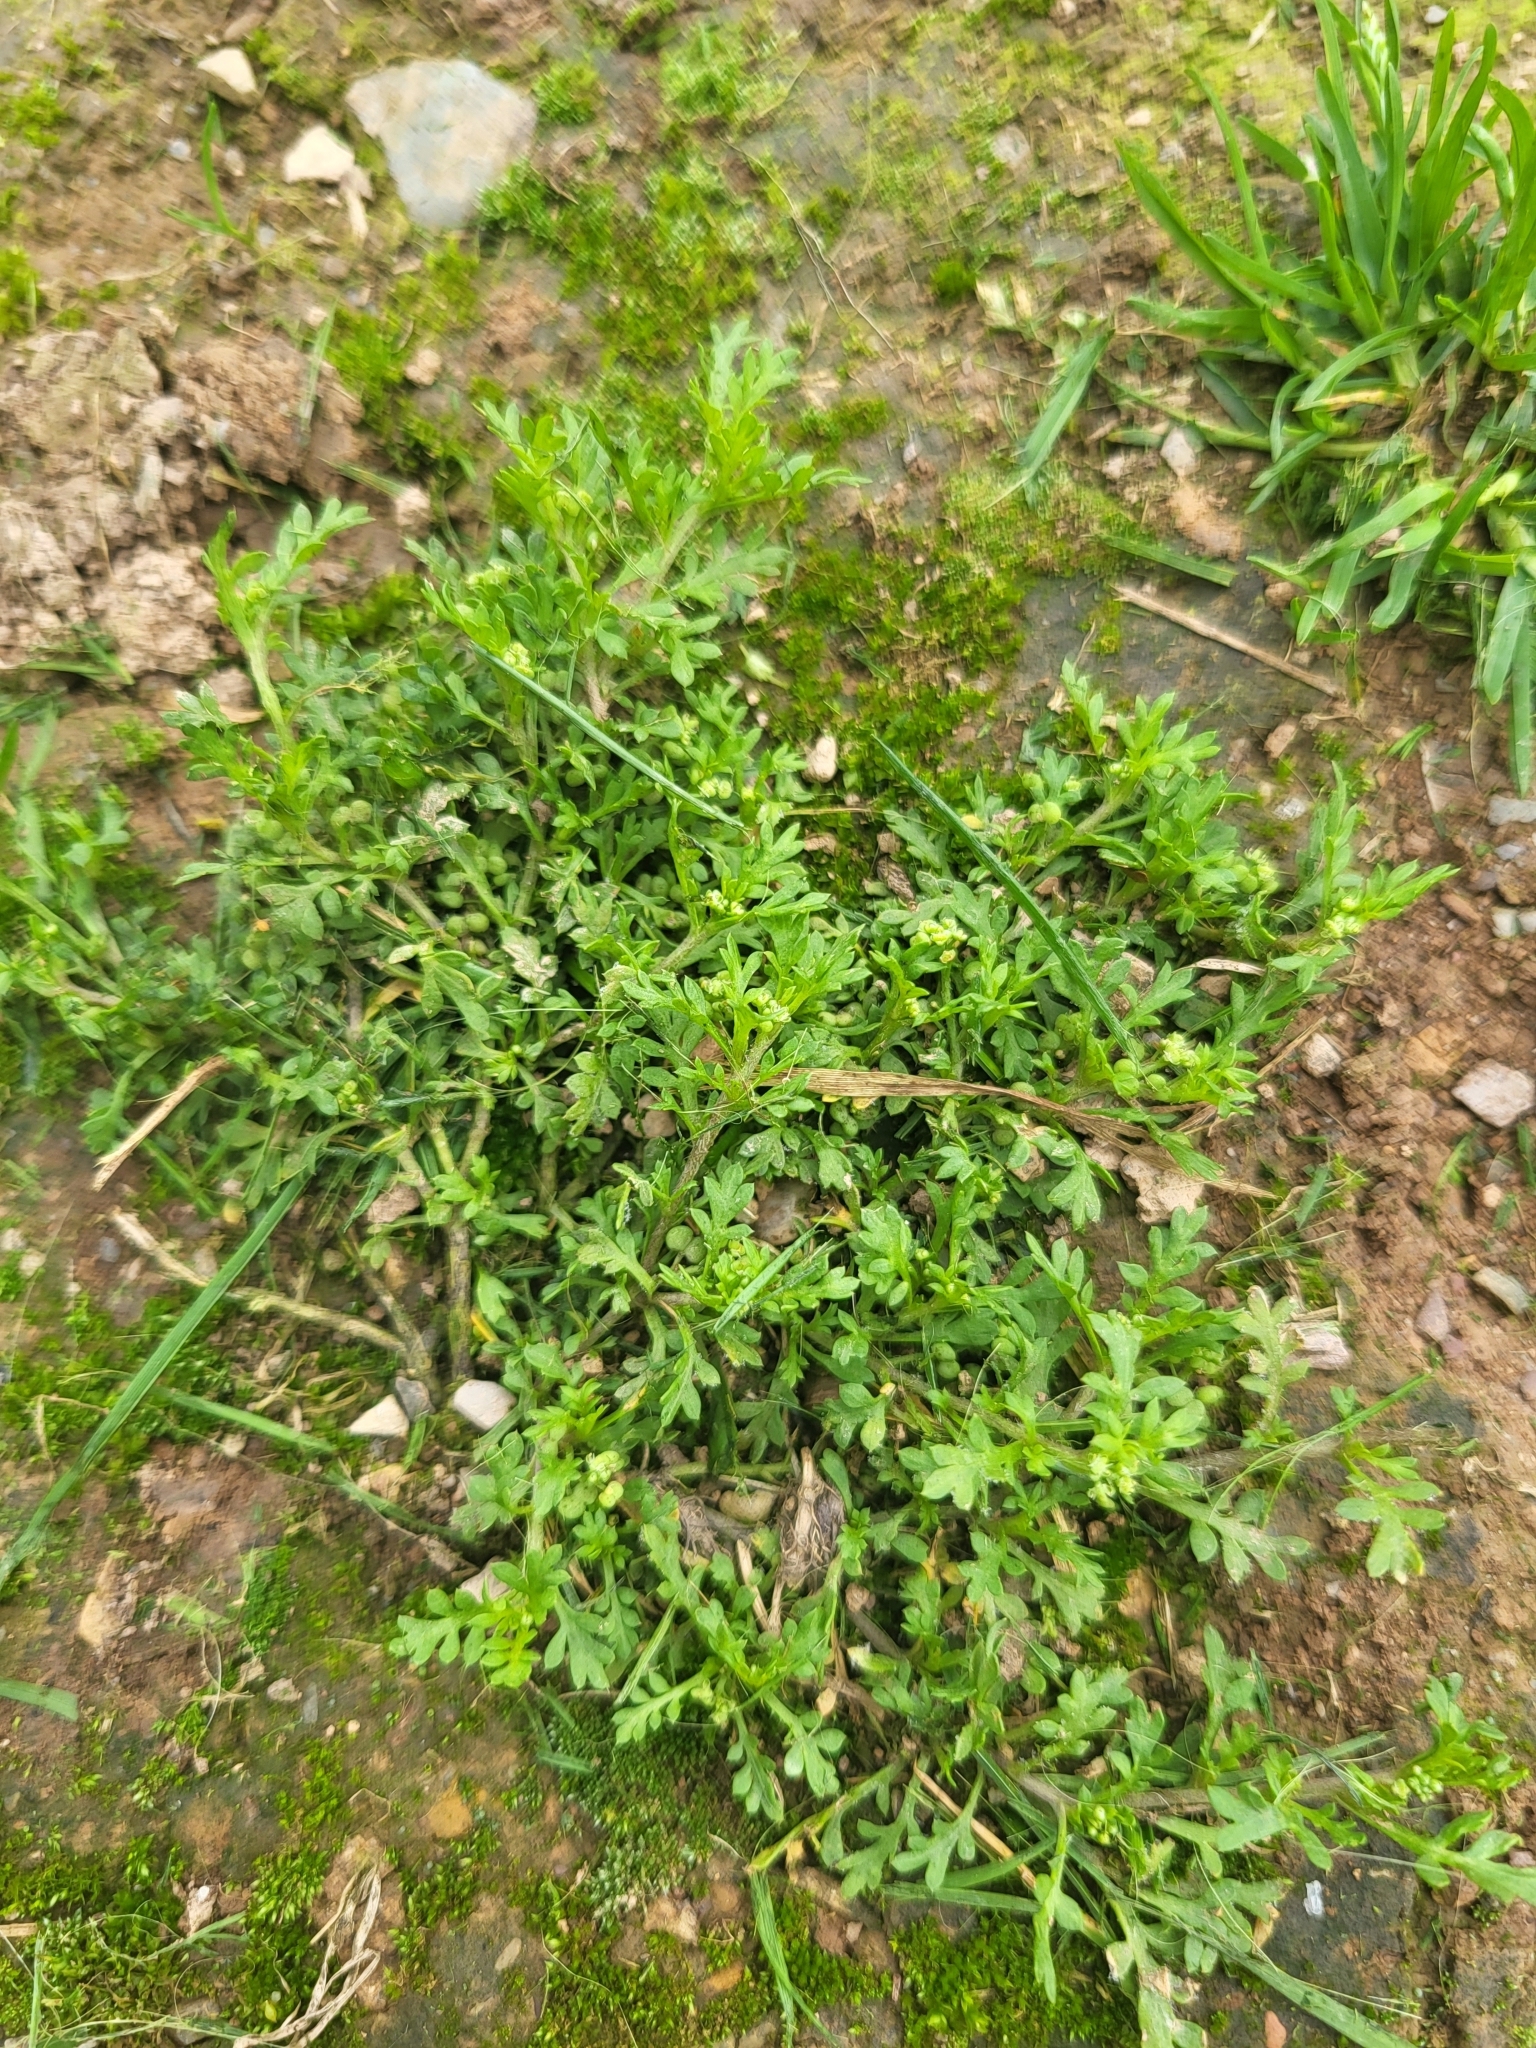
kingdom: Plantae
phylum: Tracheophyta
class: Magnoliopsida
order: Brassicales
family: Brassicaceae
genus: Lepidium
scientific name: Lepidium didymum
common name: Lesser swinecress
